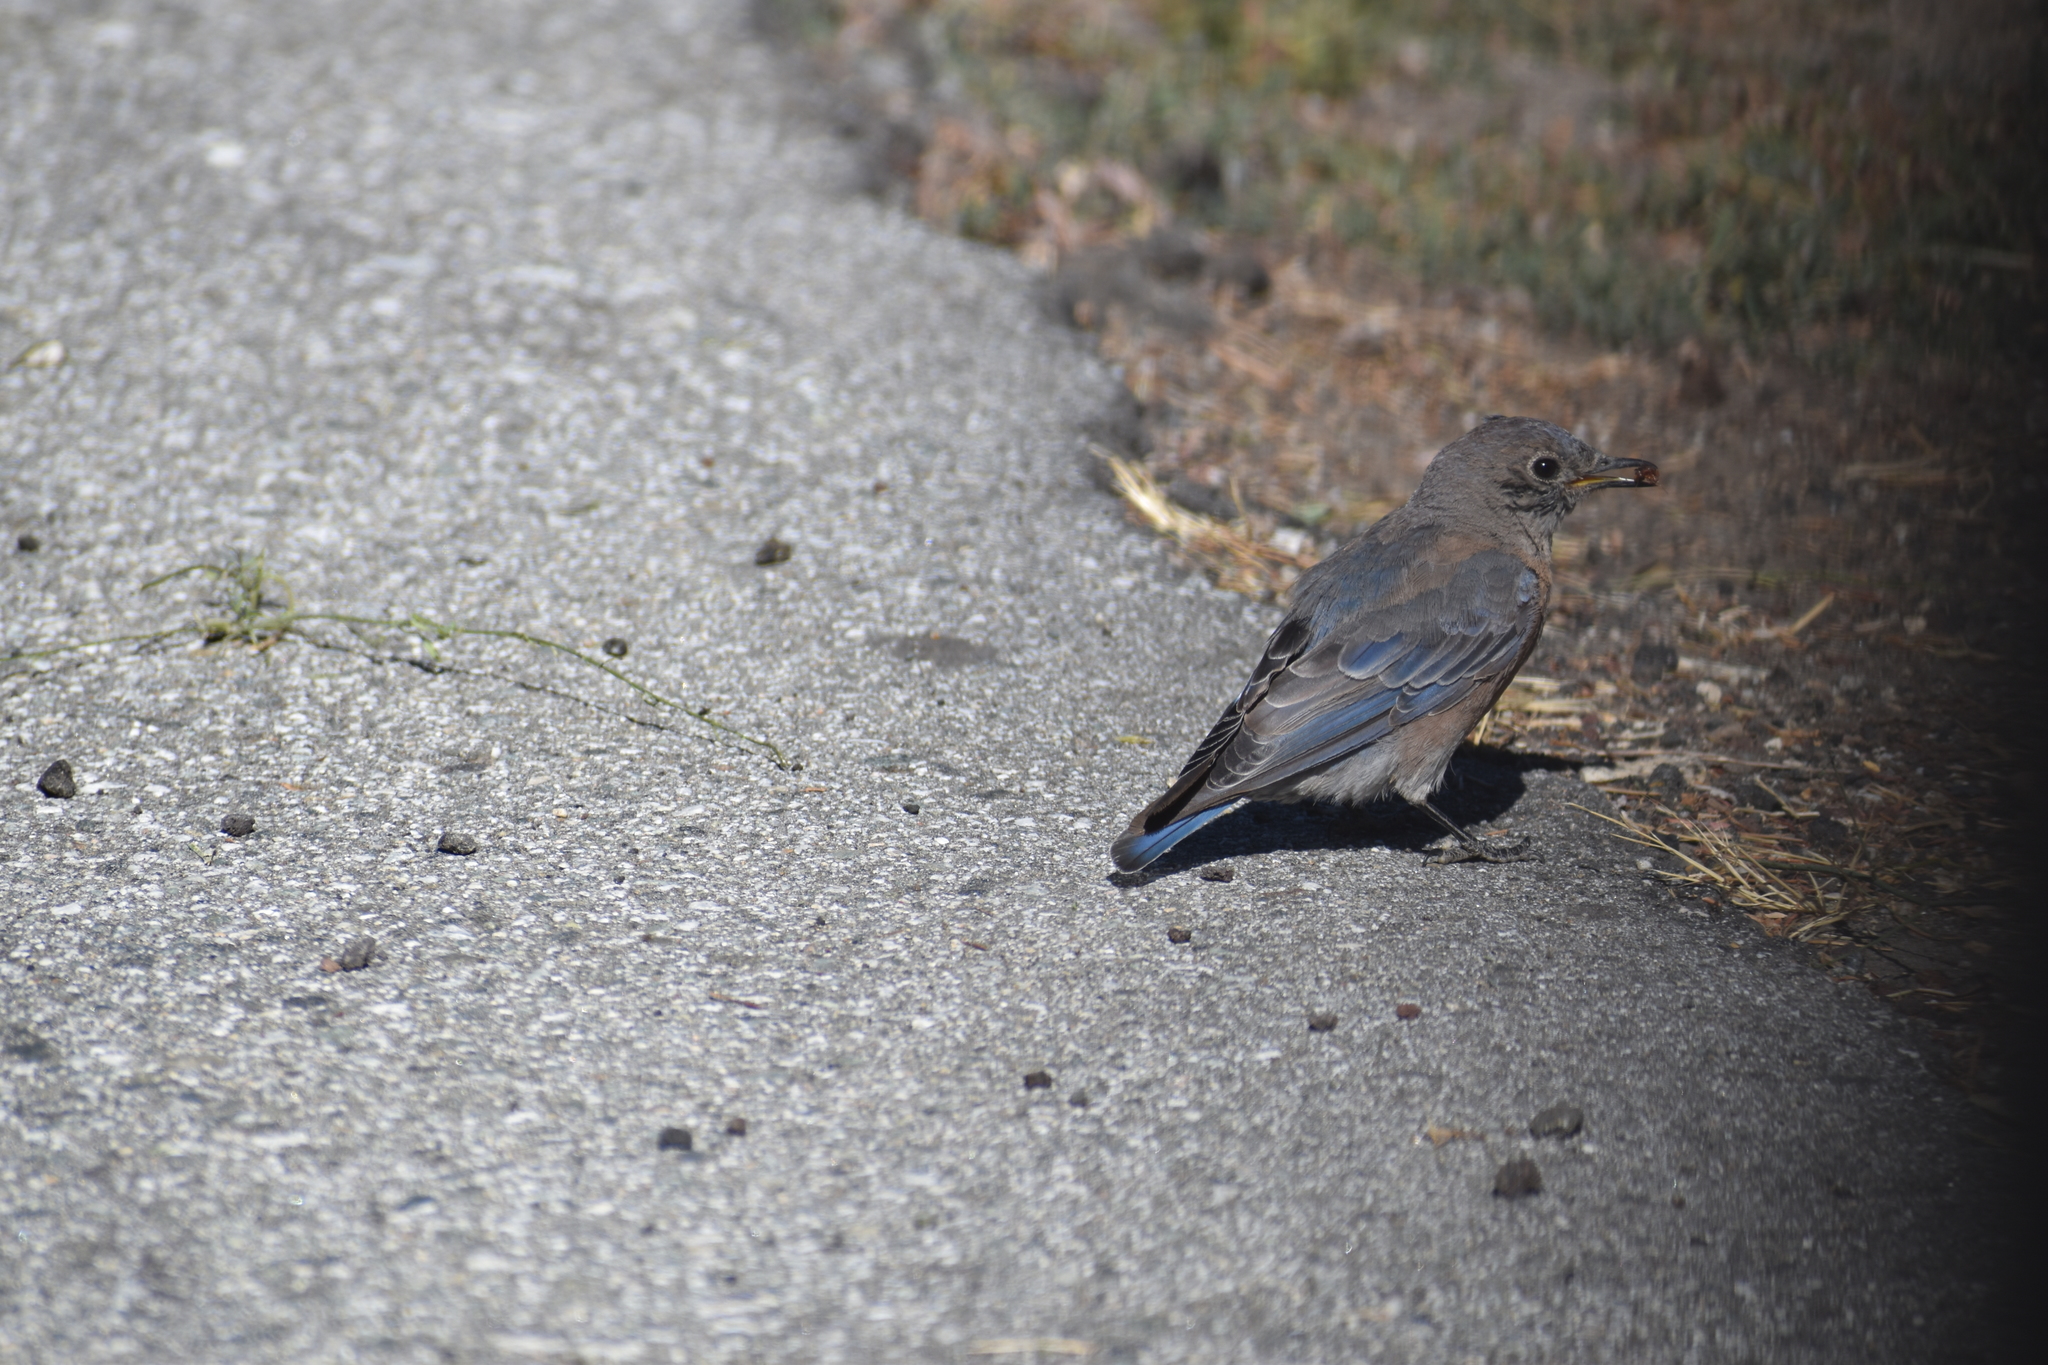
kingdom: Animalia
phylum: Chordata
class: Aves
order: Passeriformes
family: Turdidae
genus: Sialia
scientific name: Sialia mexicana
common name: Western bluebird
